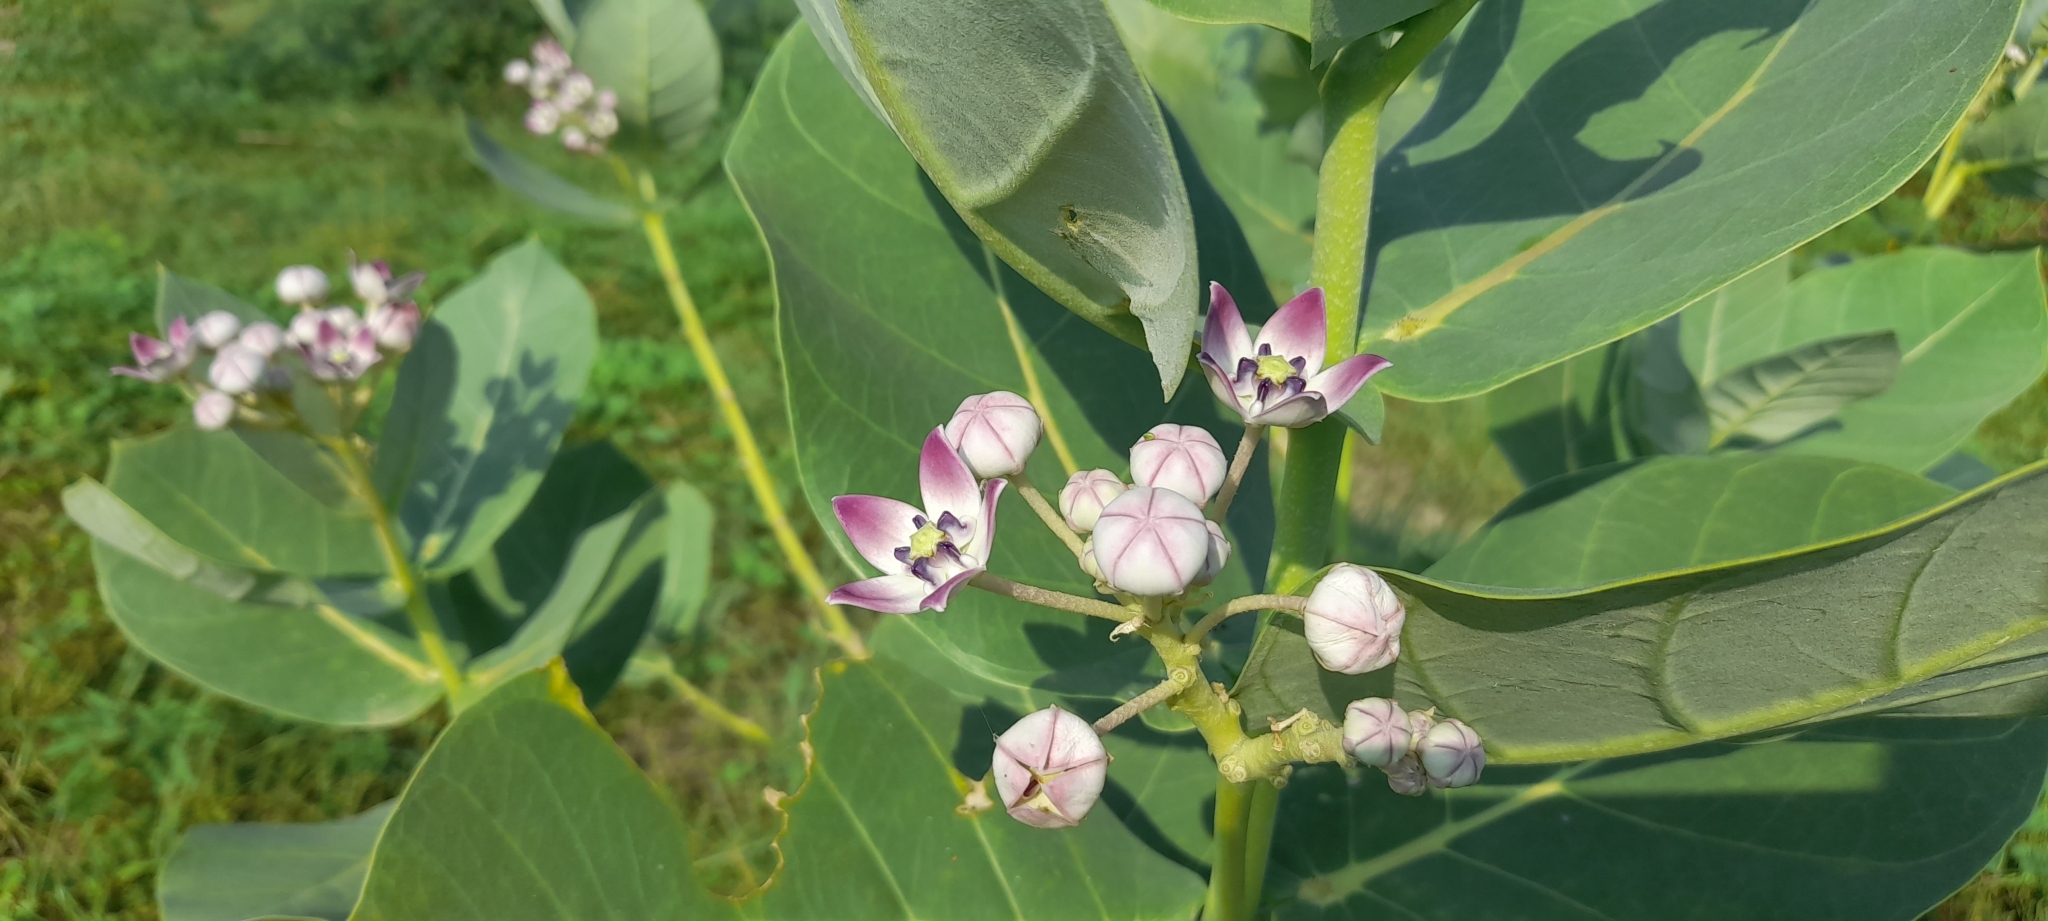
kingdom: Plantae
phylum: Tracheophyta
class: Magnoliopsida
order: Gentianales
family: Apocynaceae
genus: Calotropis
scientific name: Calotropis procera
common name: Roostertree
